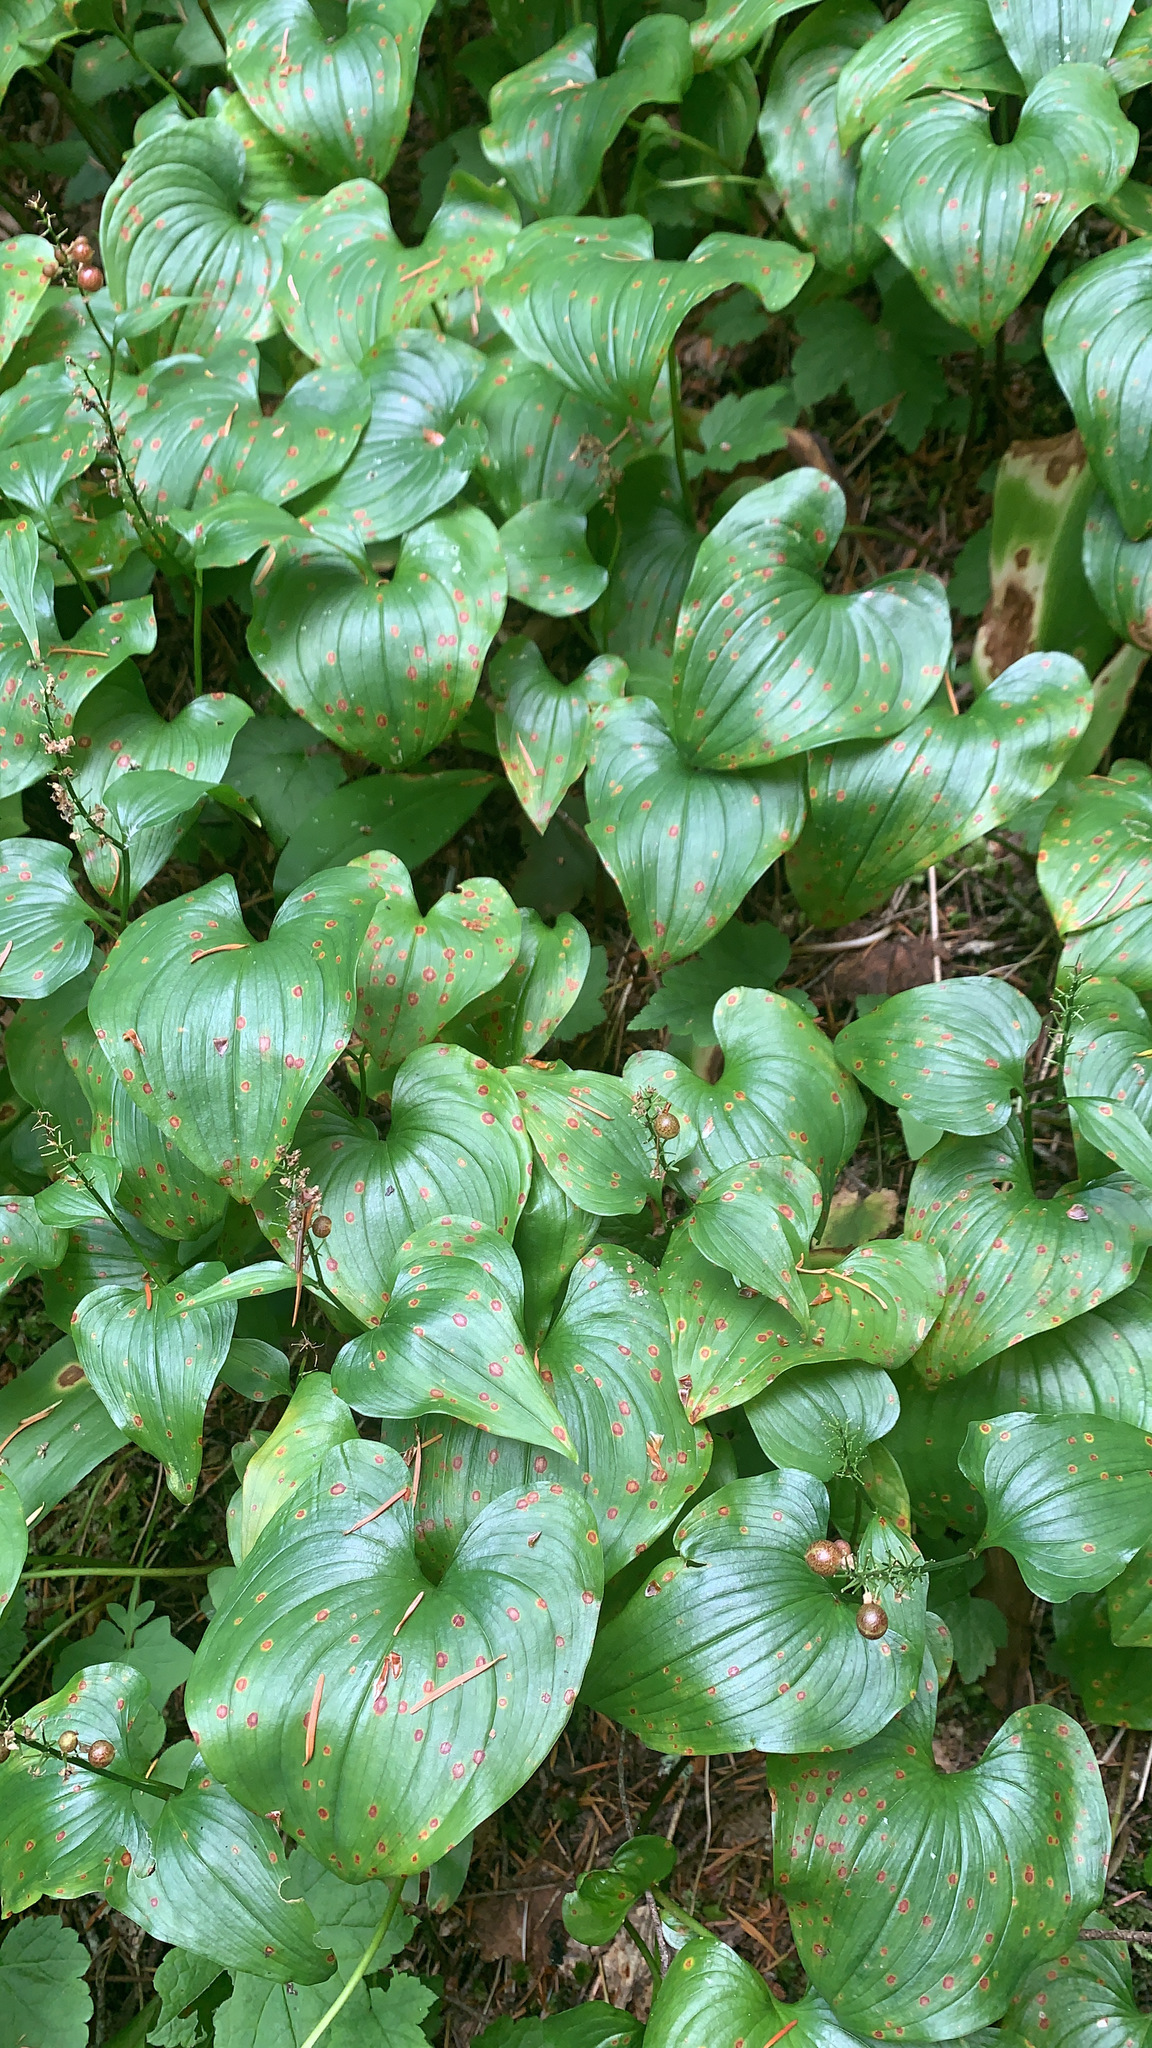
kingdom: Plantae
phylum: Tracheophyta
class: Liliopsida
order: Asparagales
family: Asparagaceae
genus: Maianthemum
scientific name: Maianthemum dilatatum
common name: False lily-of-the-valley
